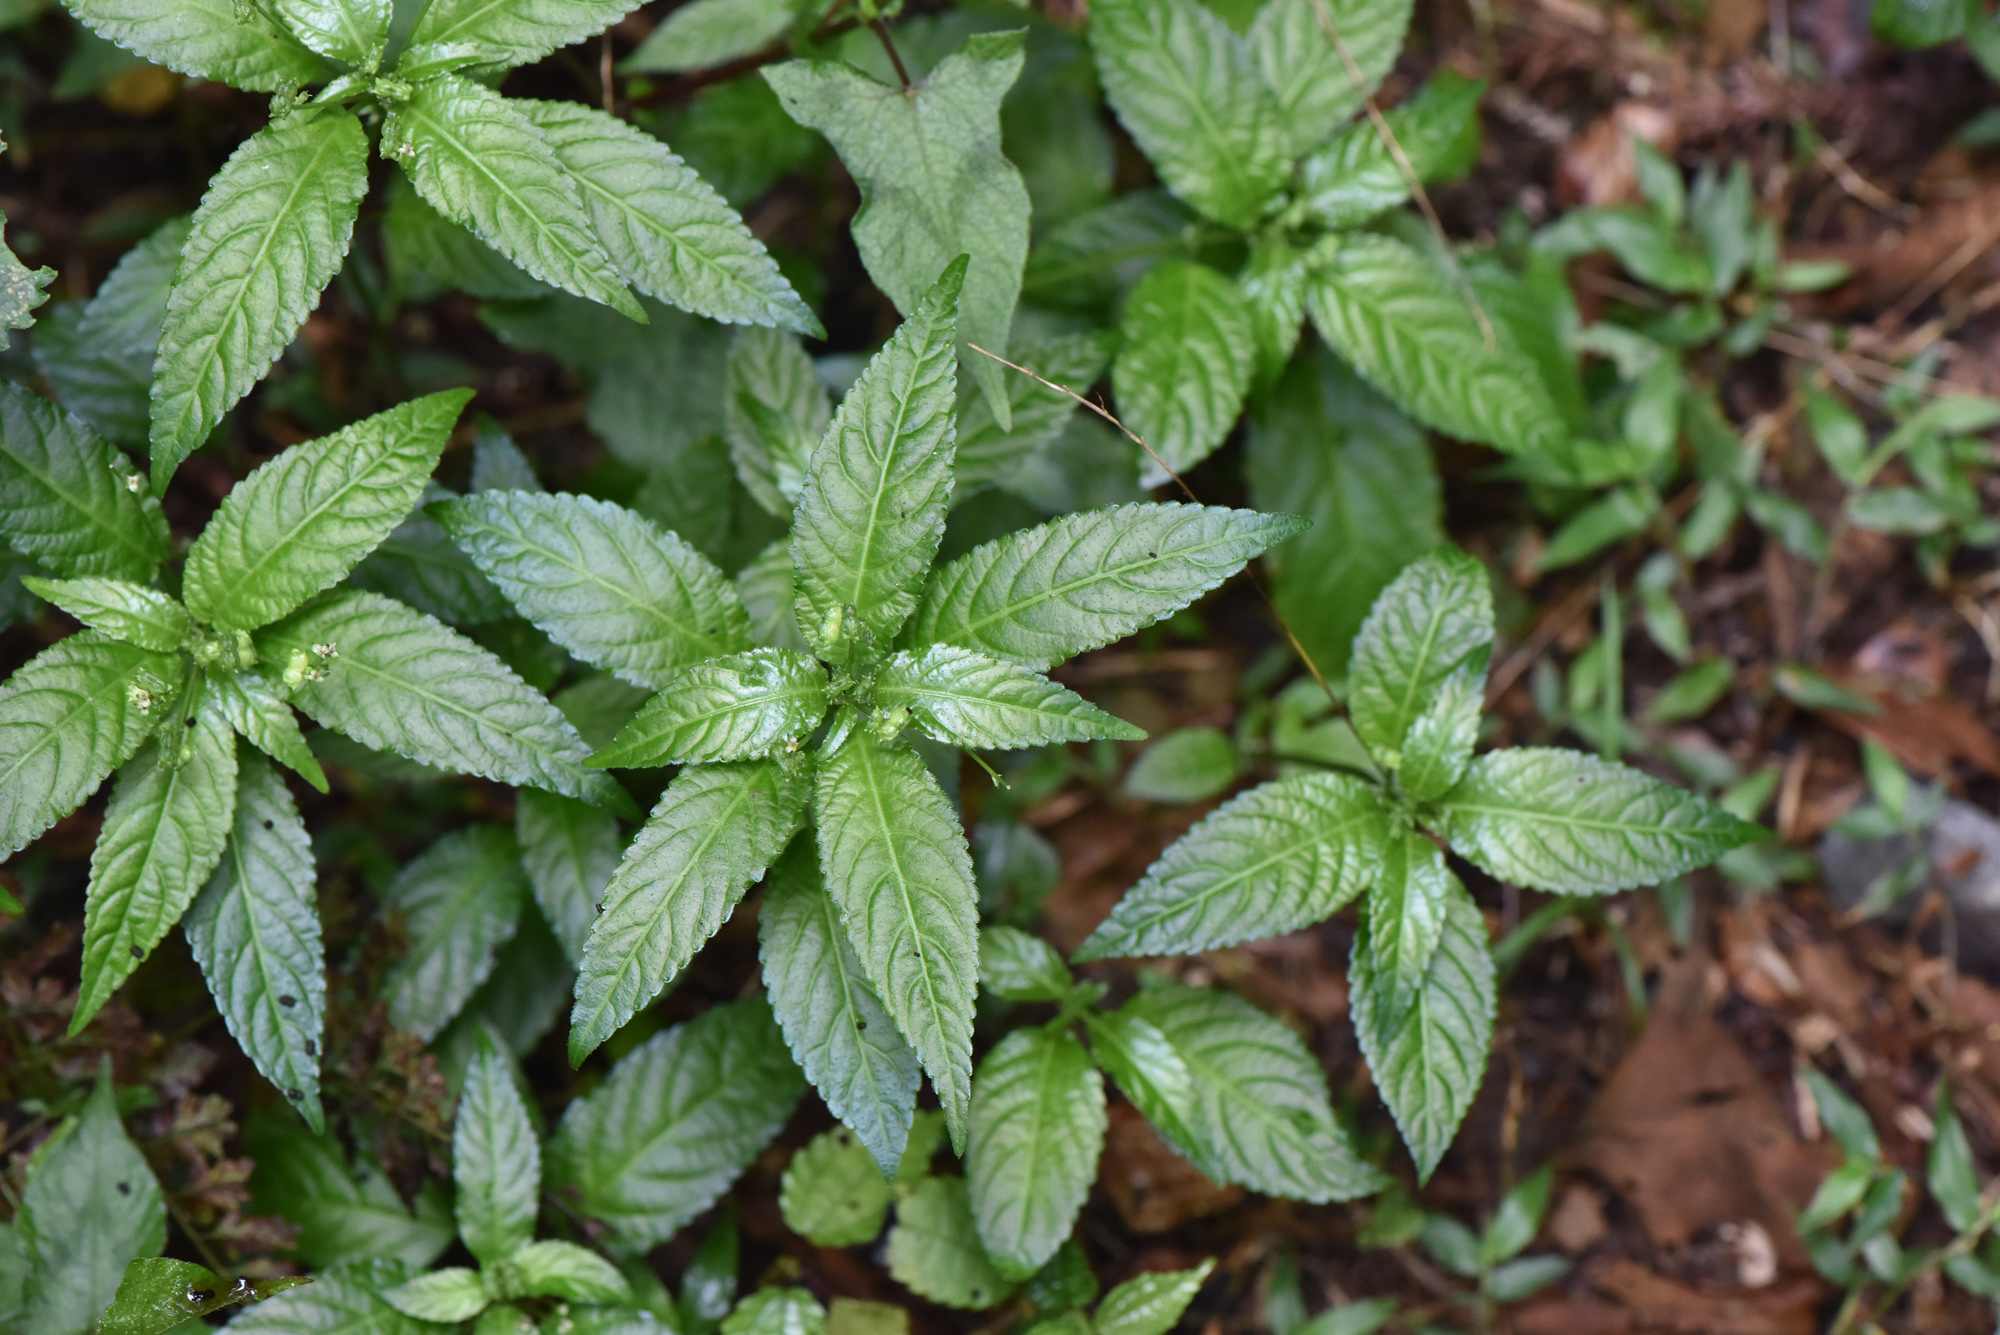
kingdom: Plantae
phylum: Tracheophyta
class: Magnoliopsida
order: Malpighiales
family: Euphorbiaceae
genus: Mercurialis
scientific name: Mercurialis leiocarpa
